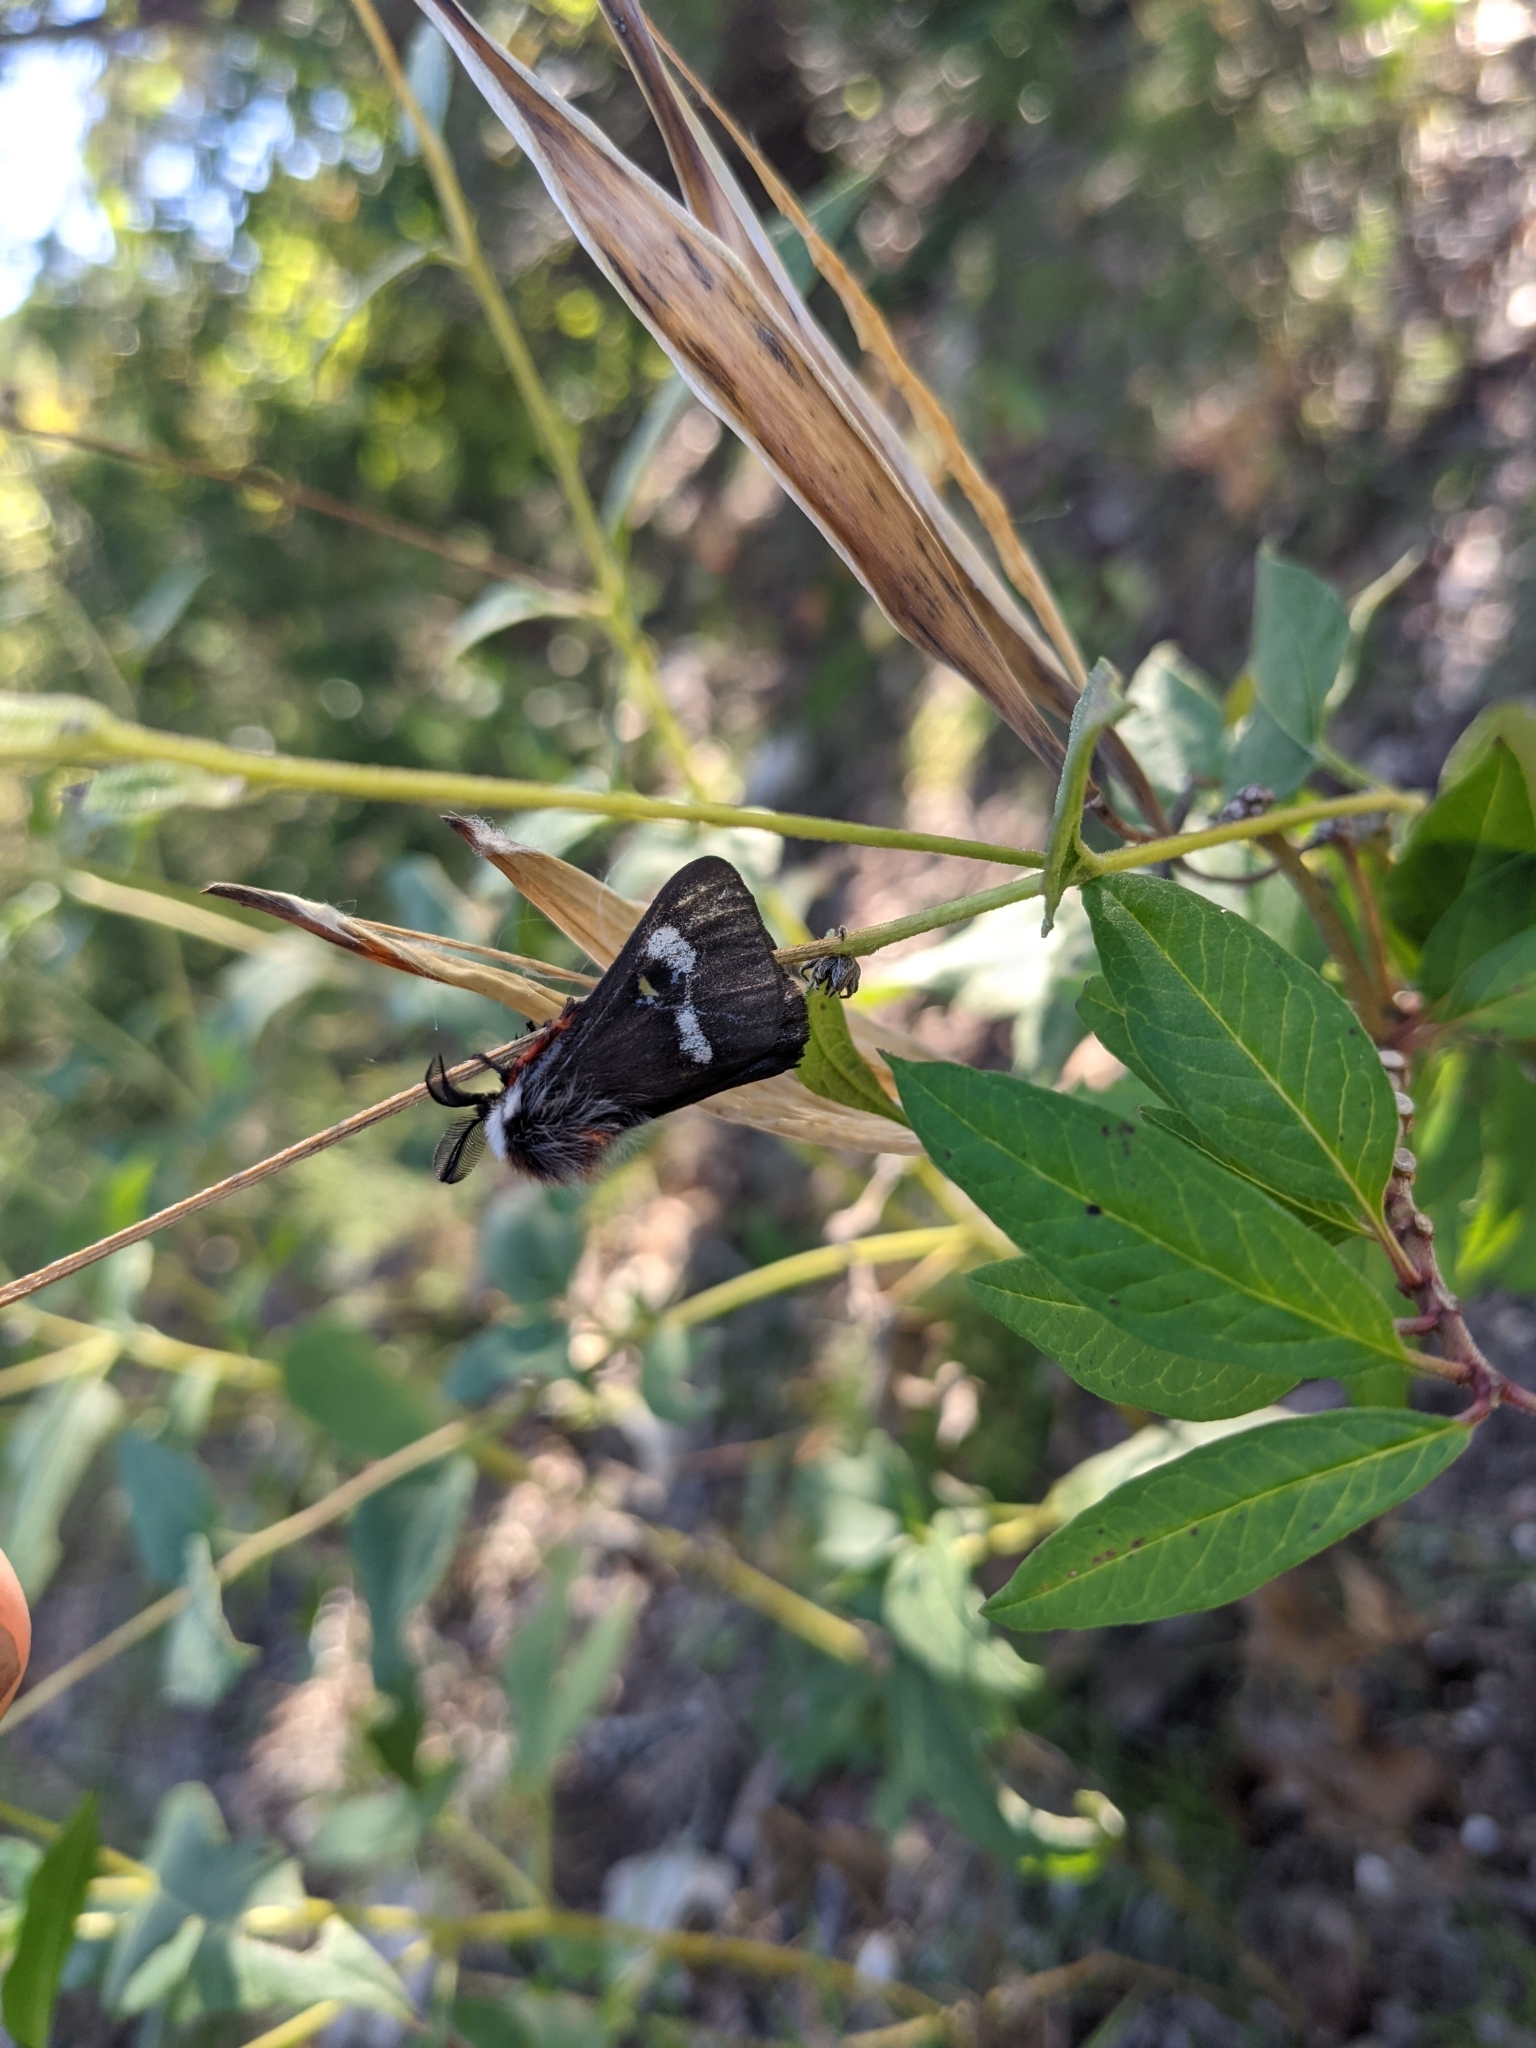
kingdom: Animalia
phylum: Arthropoda
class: Insecta
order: Lepidoptera
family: Saturniidae
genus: Hemileuca
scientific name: Hemileuca grotei
